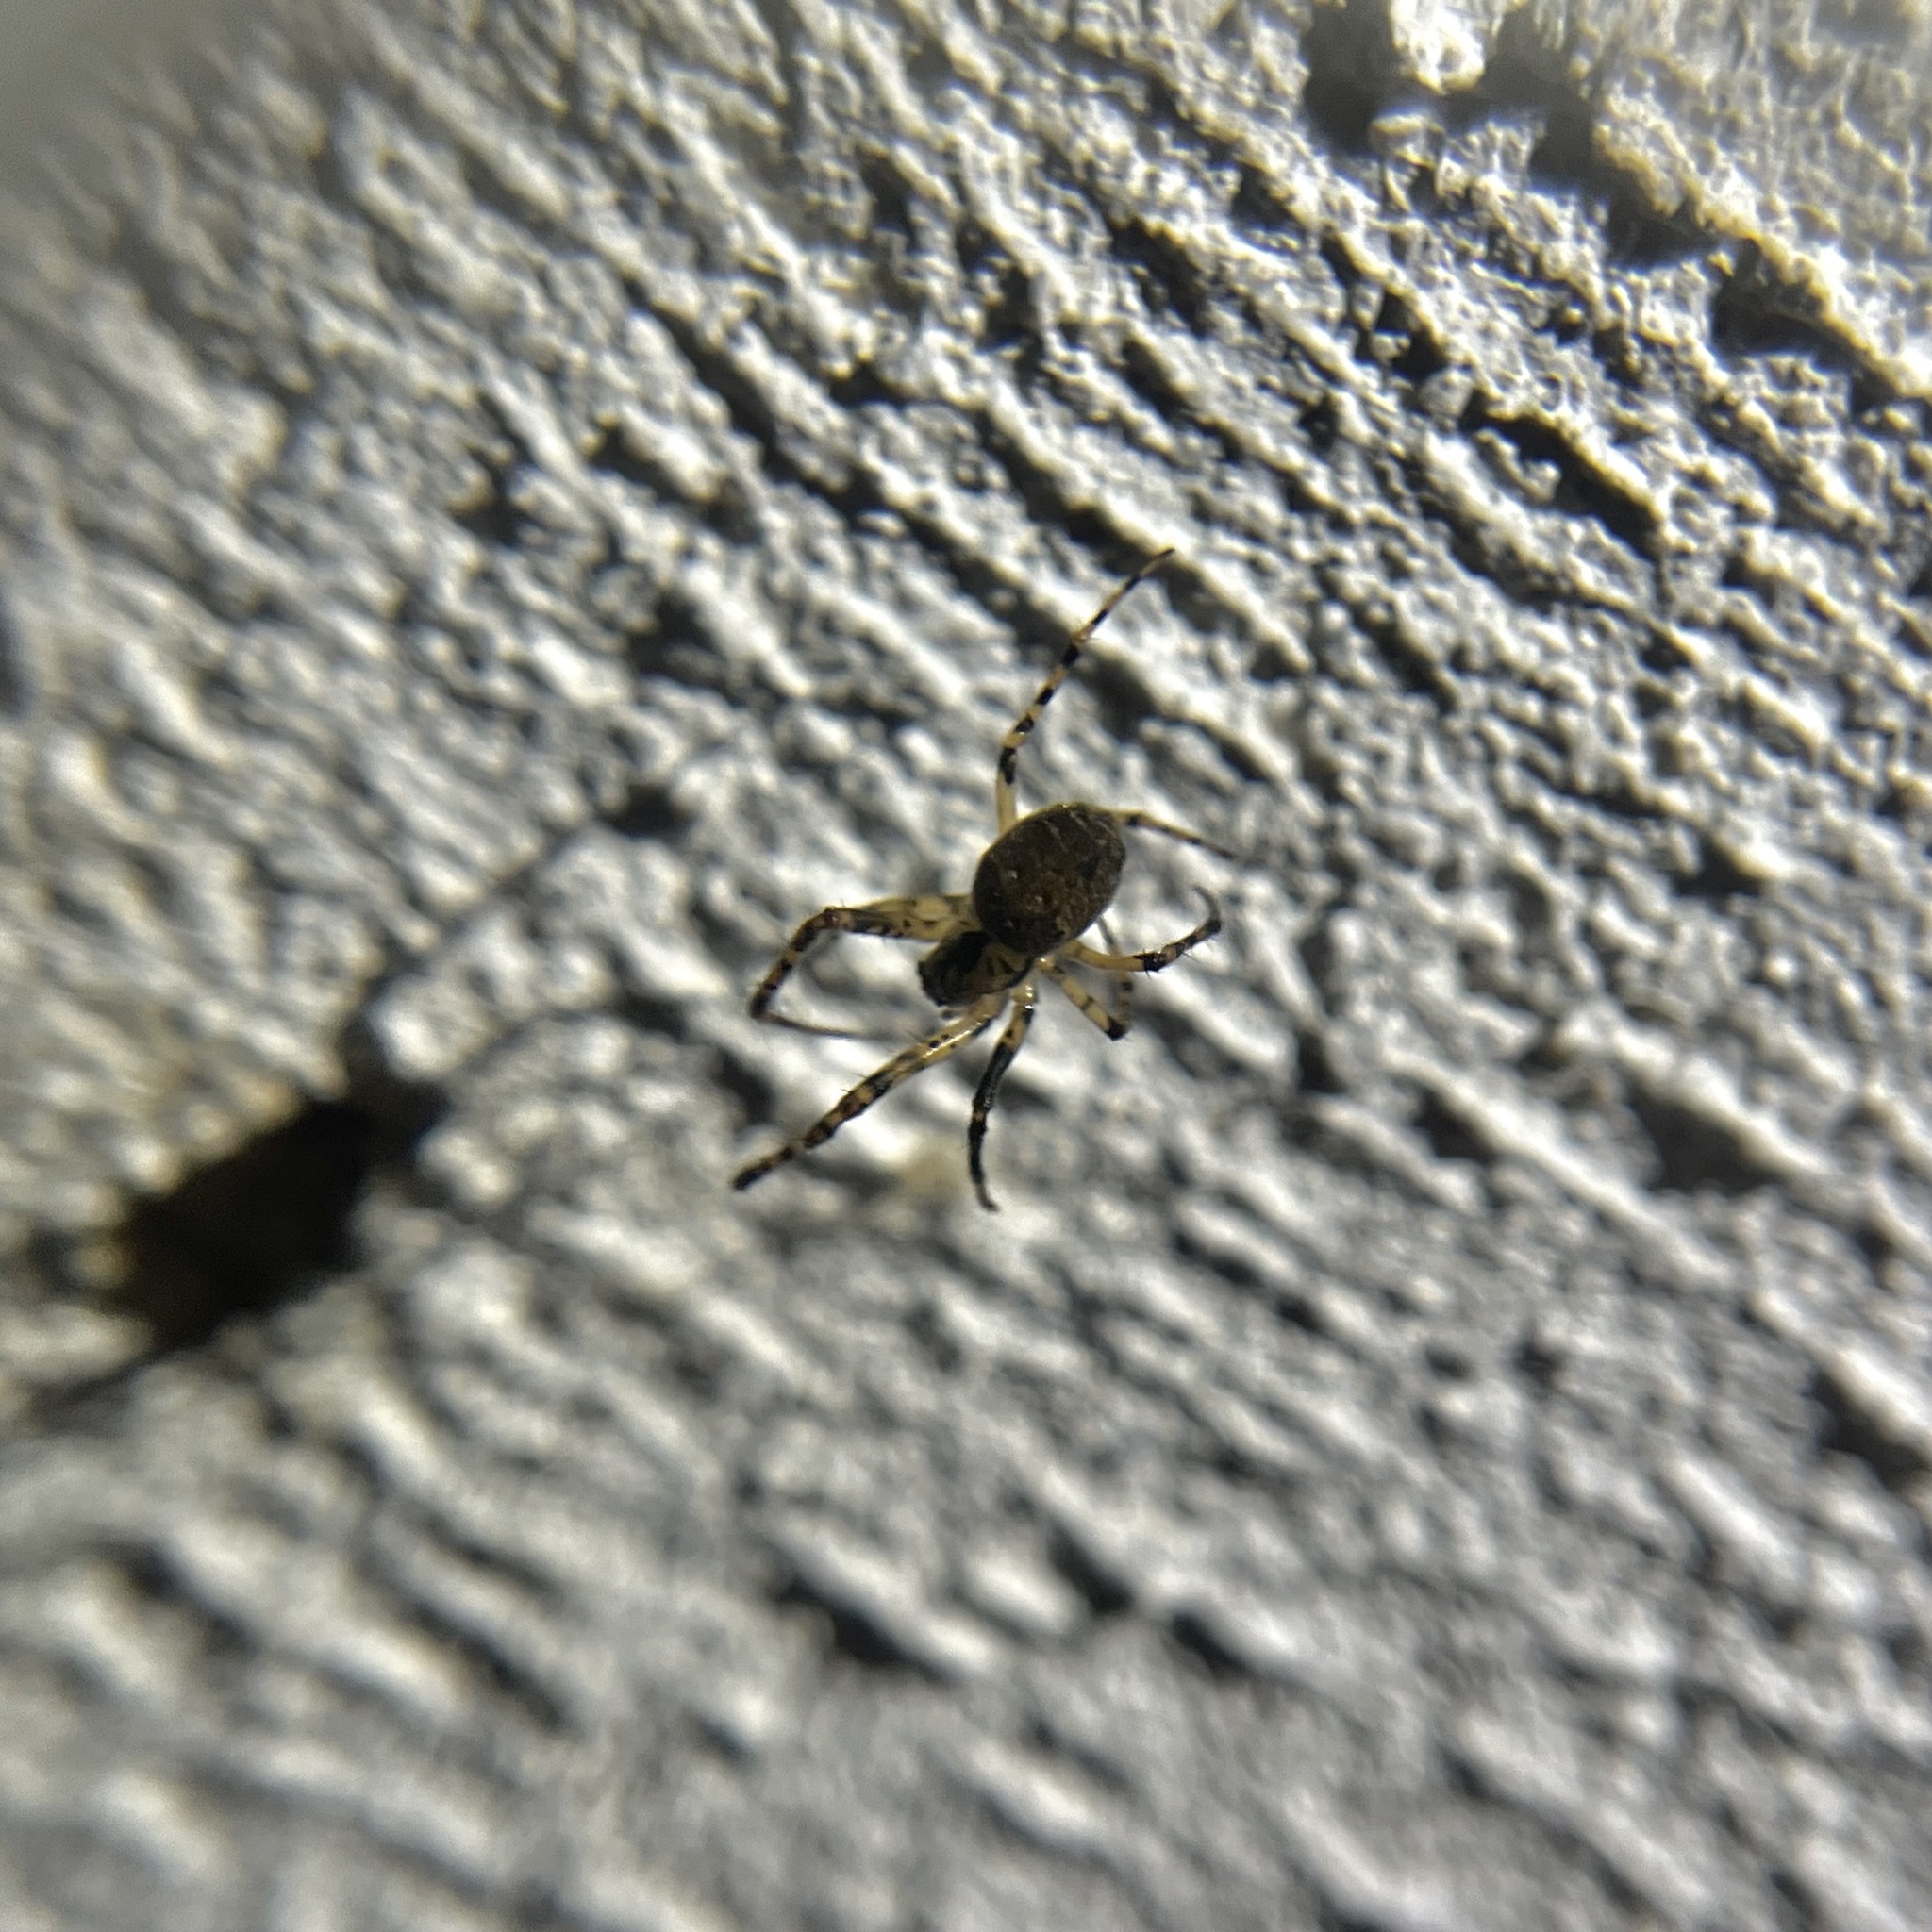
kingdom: Animalia
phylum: Arthropoda
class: Arachnida
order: Araneae
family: Tetragnathidae
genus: Metellina
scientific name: Metellina merianae
